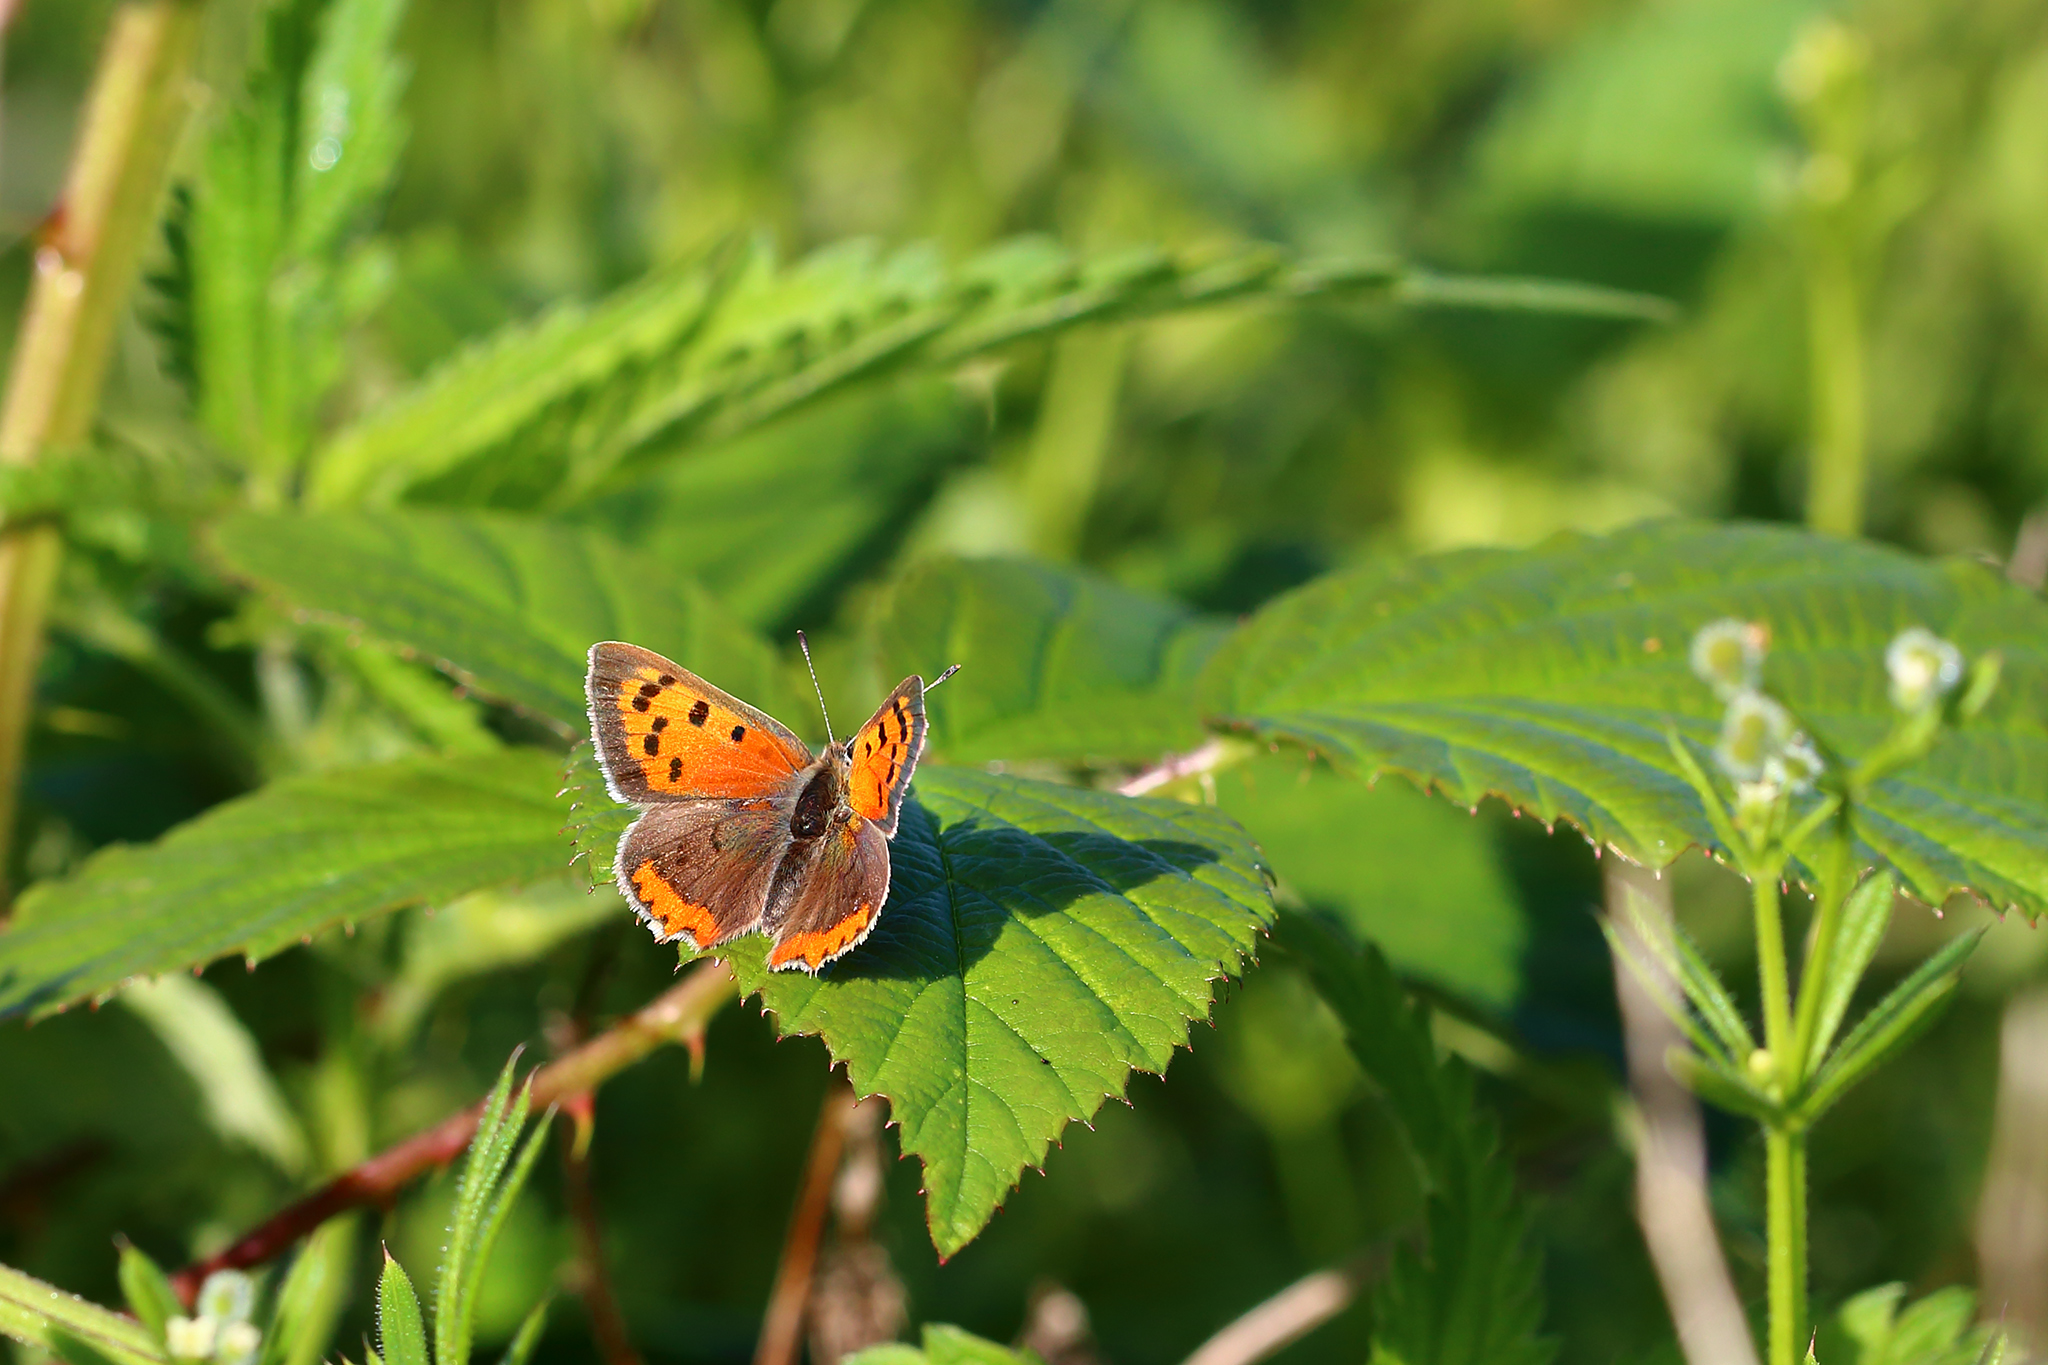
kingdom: Animalia
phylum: Arthropoda
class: Insecta
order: Lepidoptera
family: Lycaenidae
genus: Lycaena
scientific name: Lycaena phlaeas
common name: Small copper
